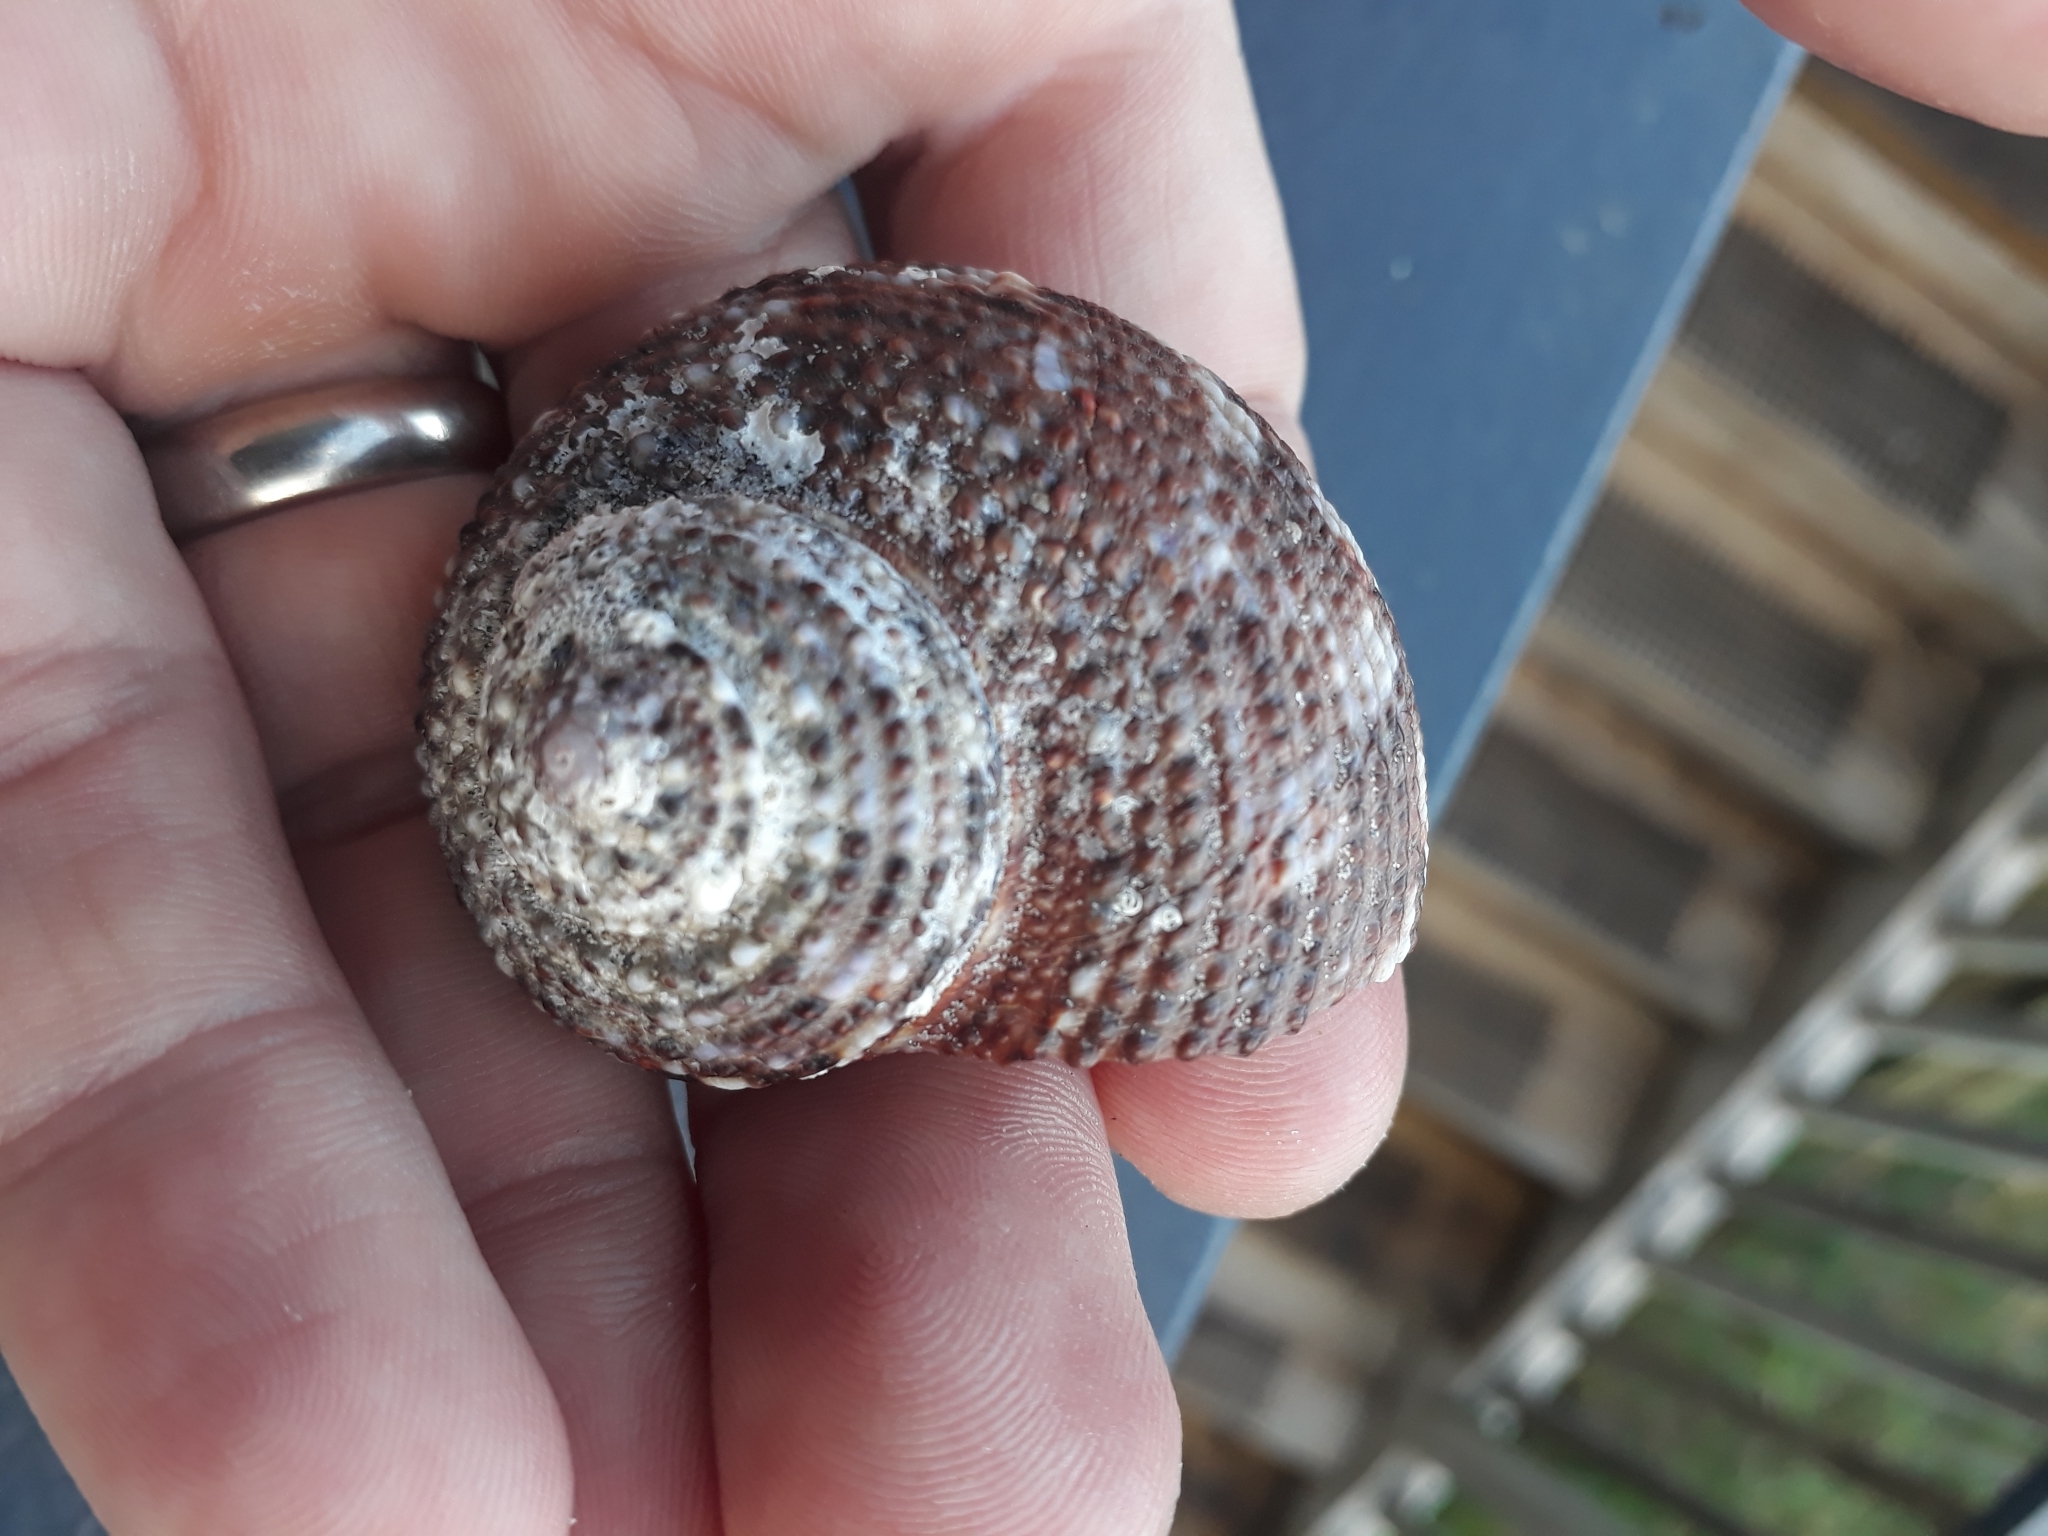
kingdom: Animalia
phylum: Mollusca
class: Gastropoda
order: Trochida
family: Turbinidae
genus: Modelia
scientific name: Modelia granosa
